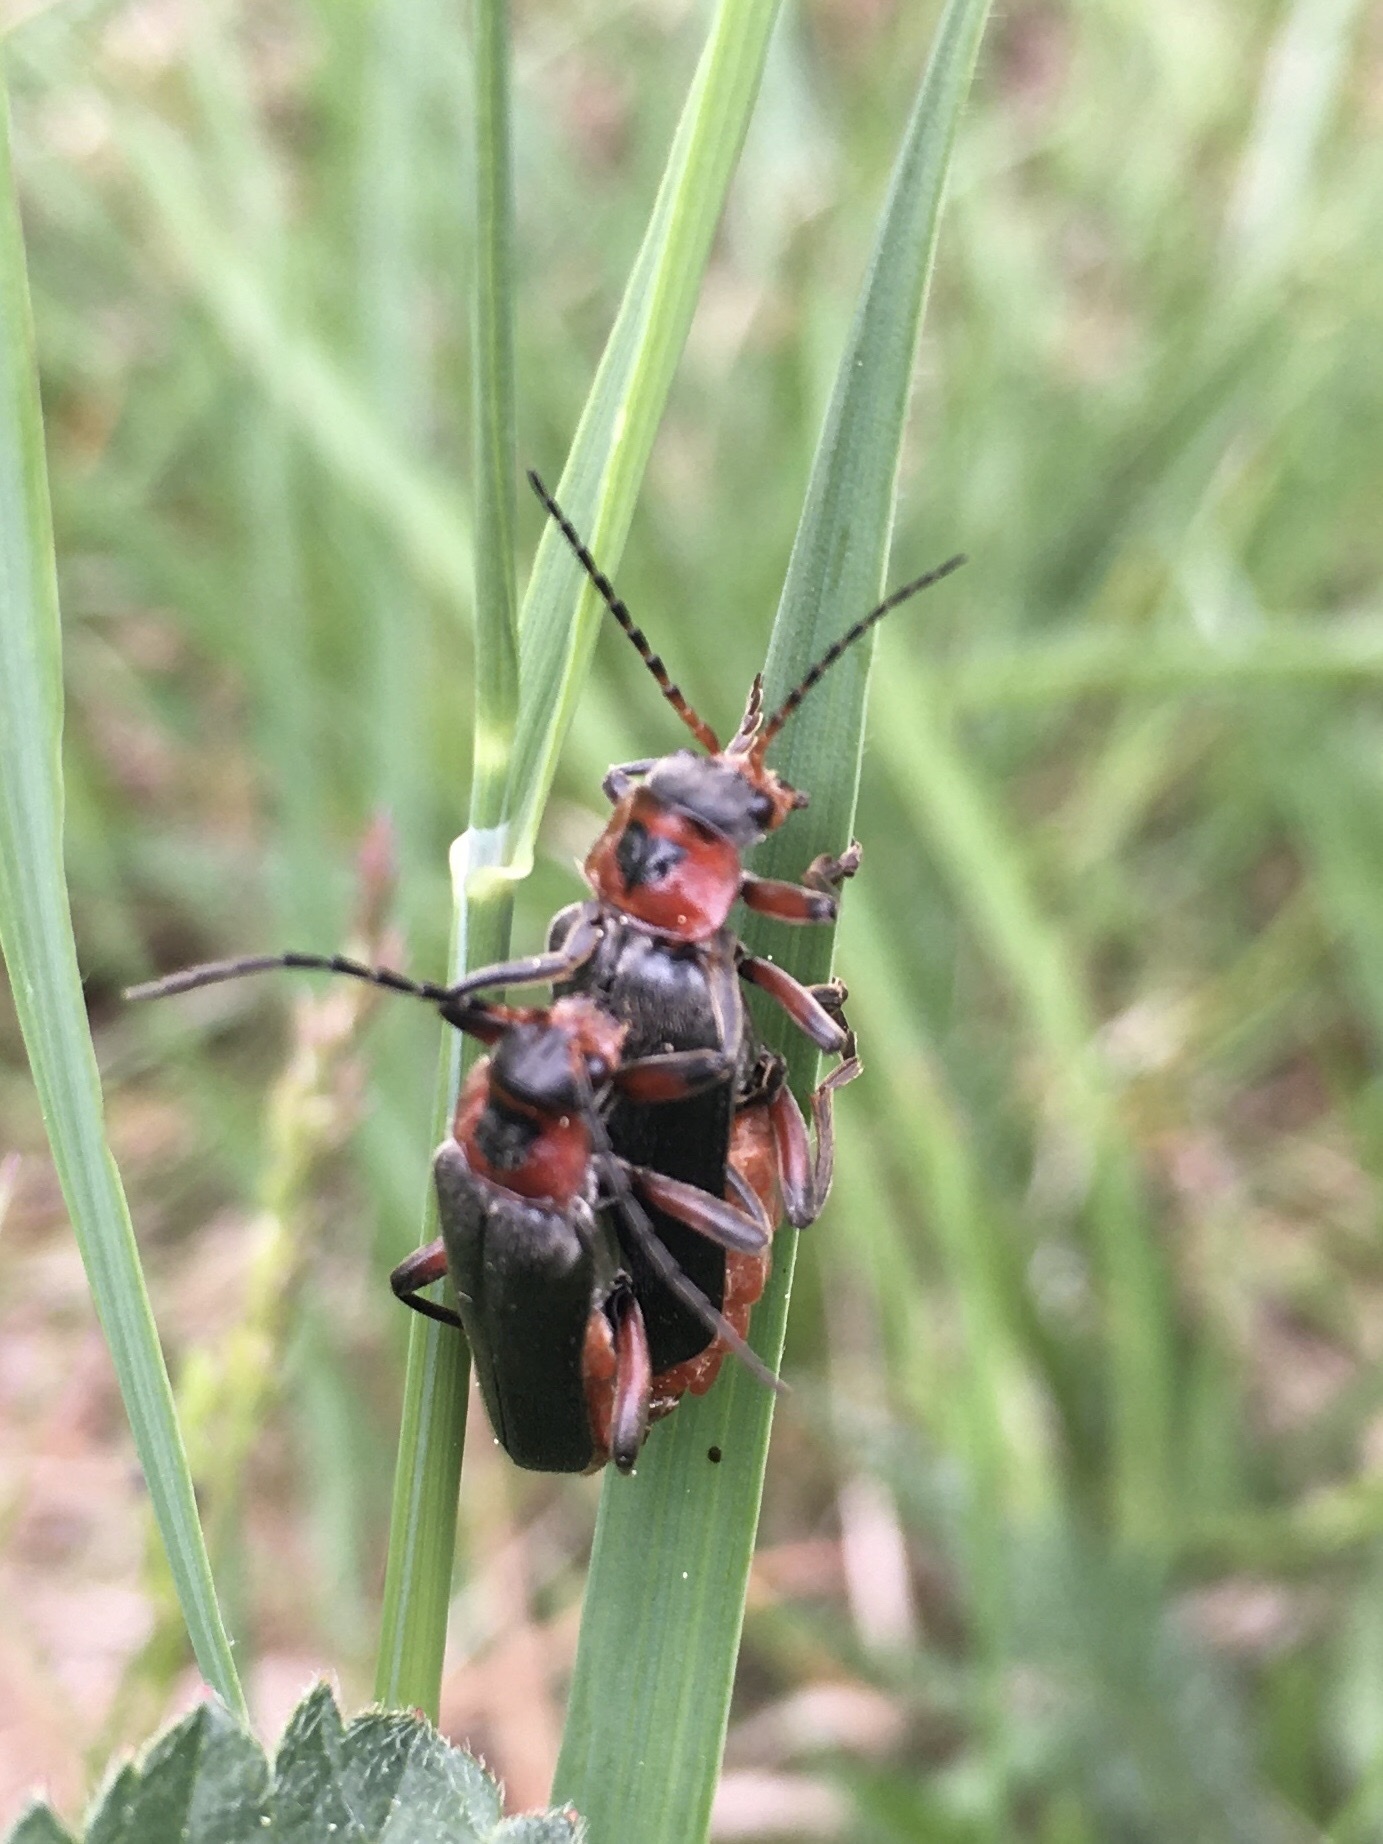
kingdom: Animalia
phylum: Arthropoda
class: Insecta
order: Coleoptera
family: Cantharidae
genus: Cantharis
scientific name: Cantharis rustica
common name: Soldier beetle
